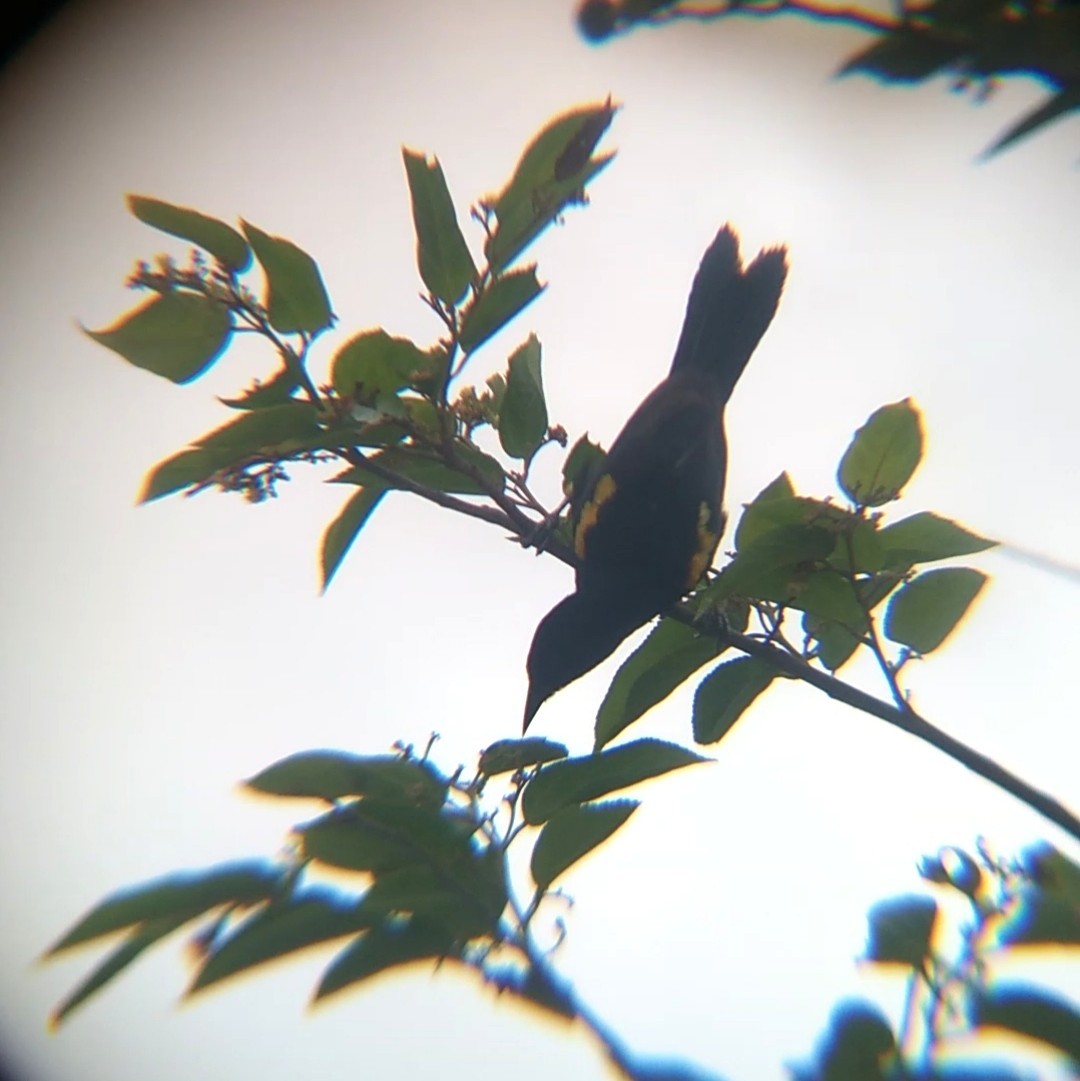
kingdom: Animalia
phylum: Chordata
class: Aves
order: Passeriformes
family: Icteridae
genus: Icterus
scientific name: Icterus cayanensis
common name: Epaulet oriole
